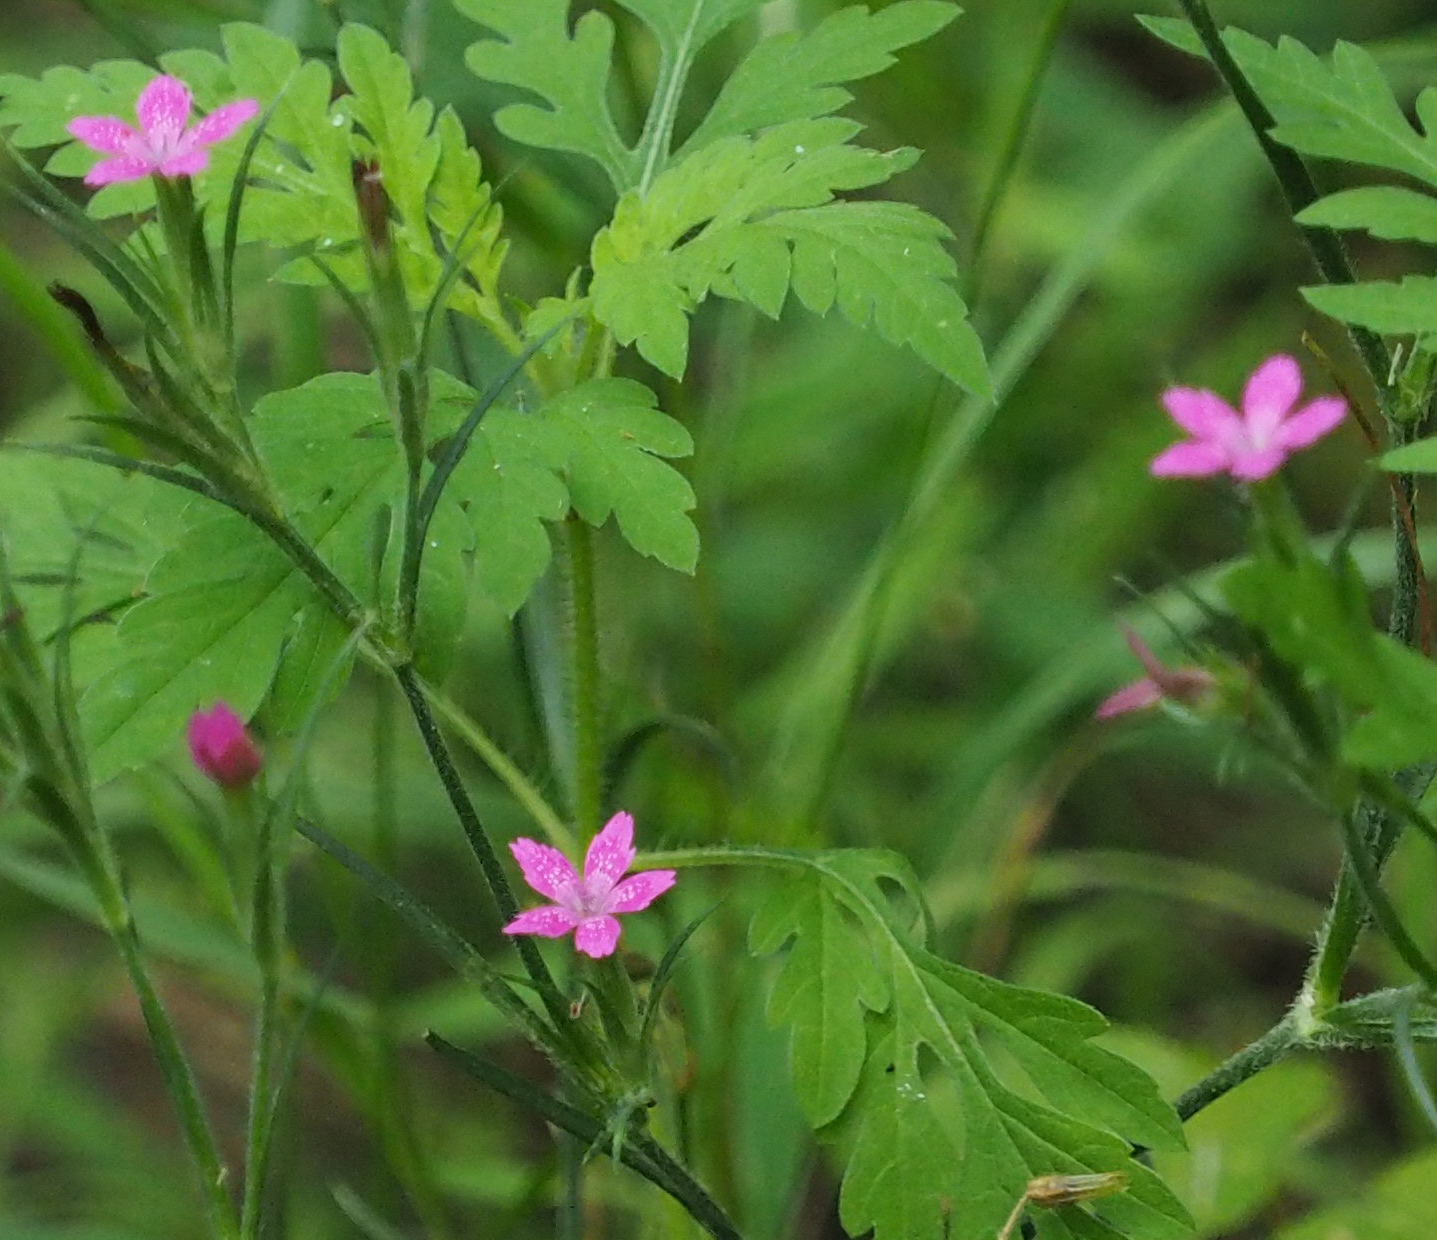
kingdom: Plantae
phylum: Tracheophyta
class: Magnoliopsida
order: Caryophyllales
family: Caryophyllaceae
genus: Dianthus
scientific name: Dianthus armeria
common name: Deptford pink
